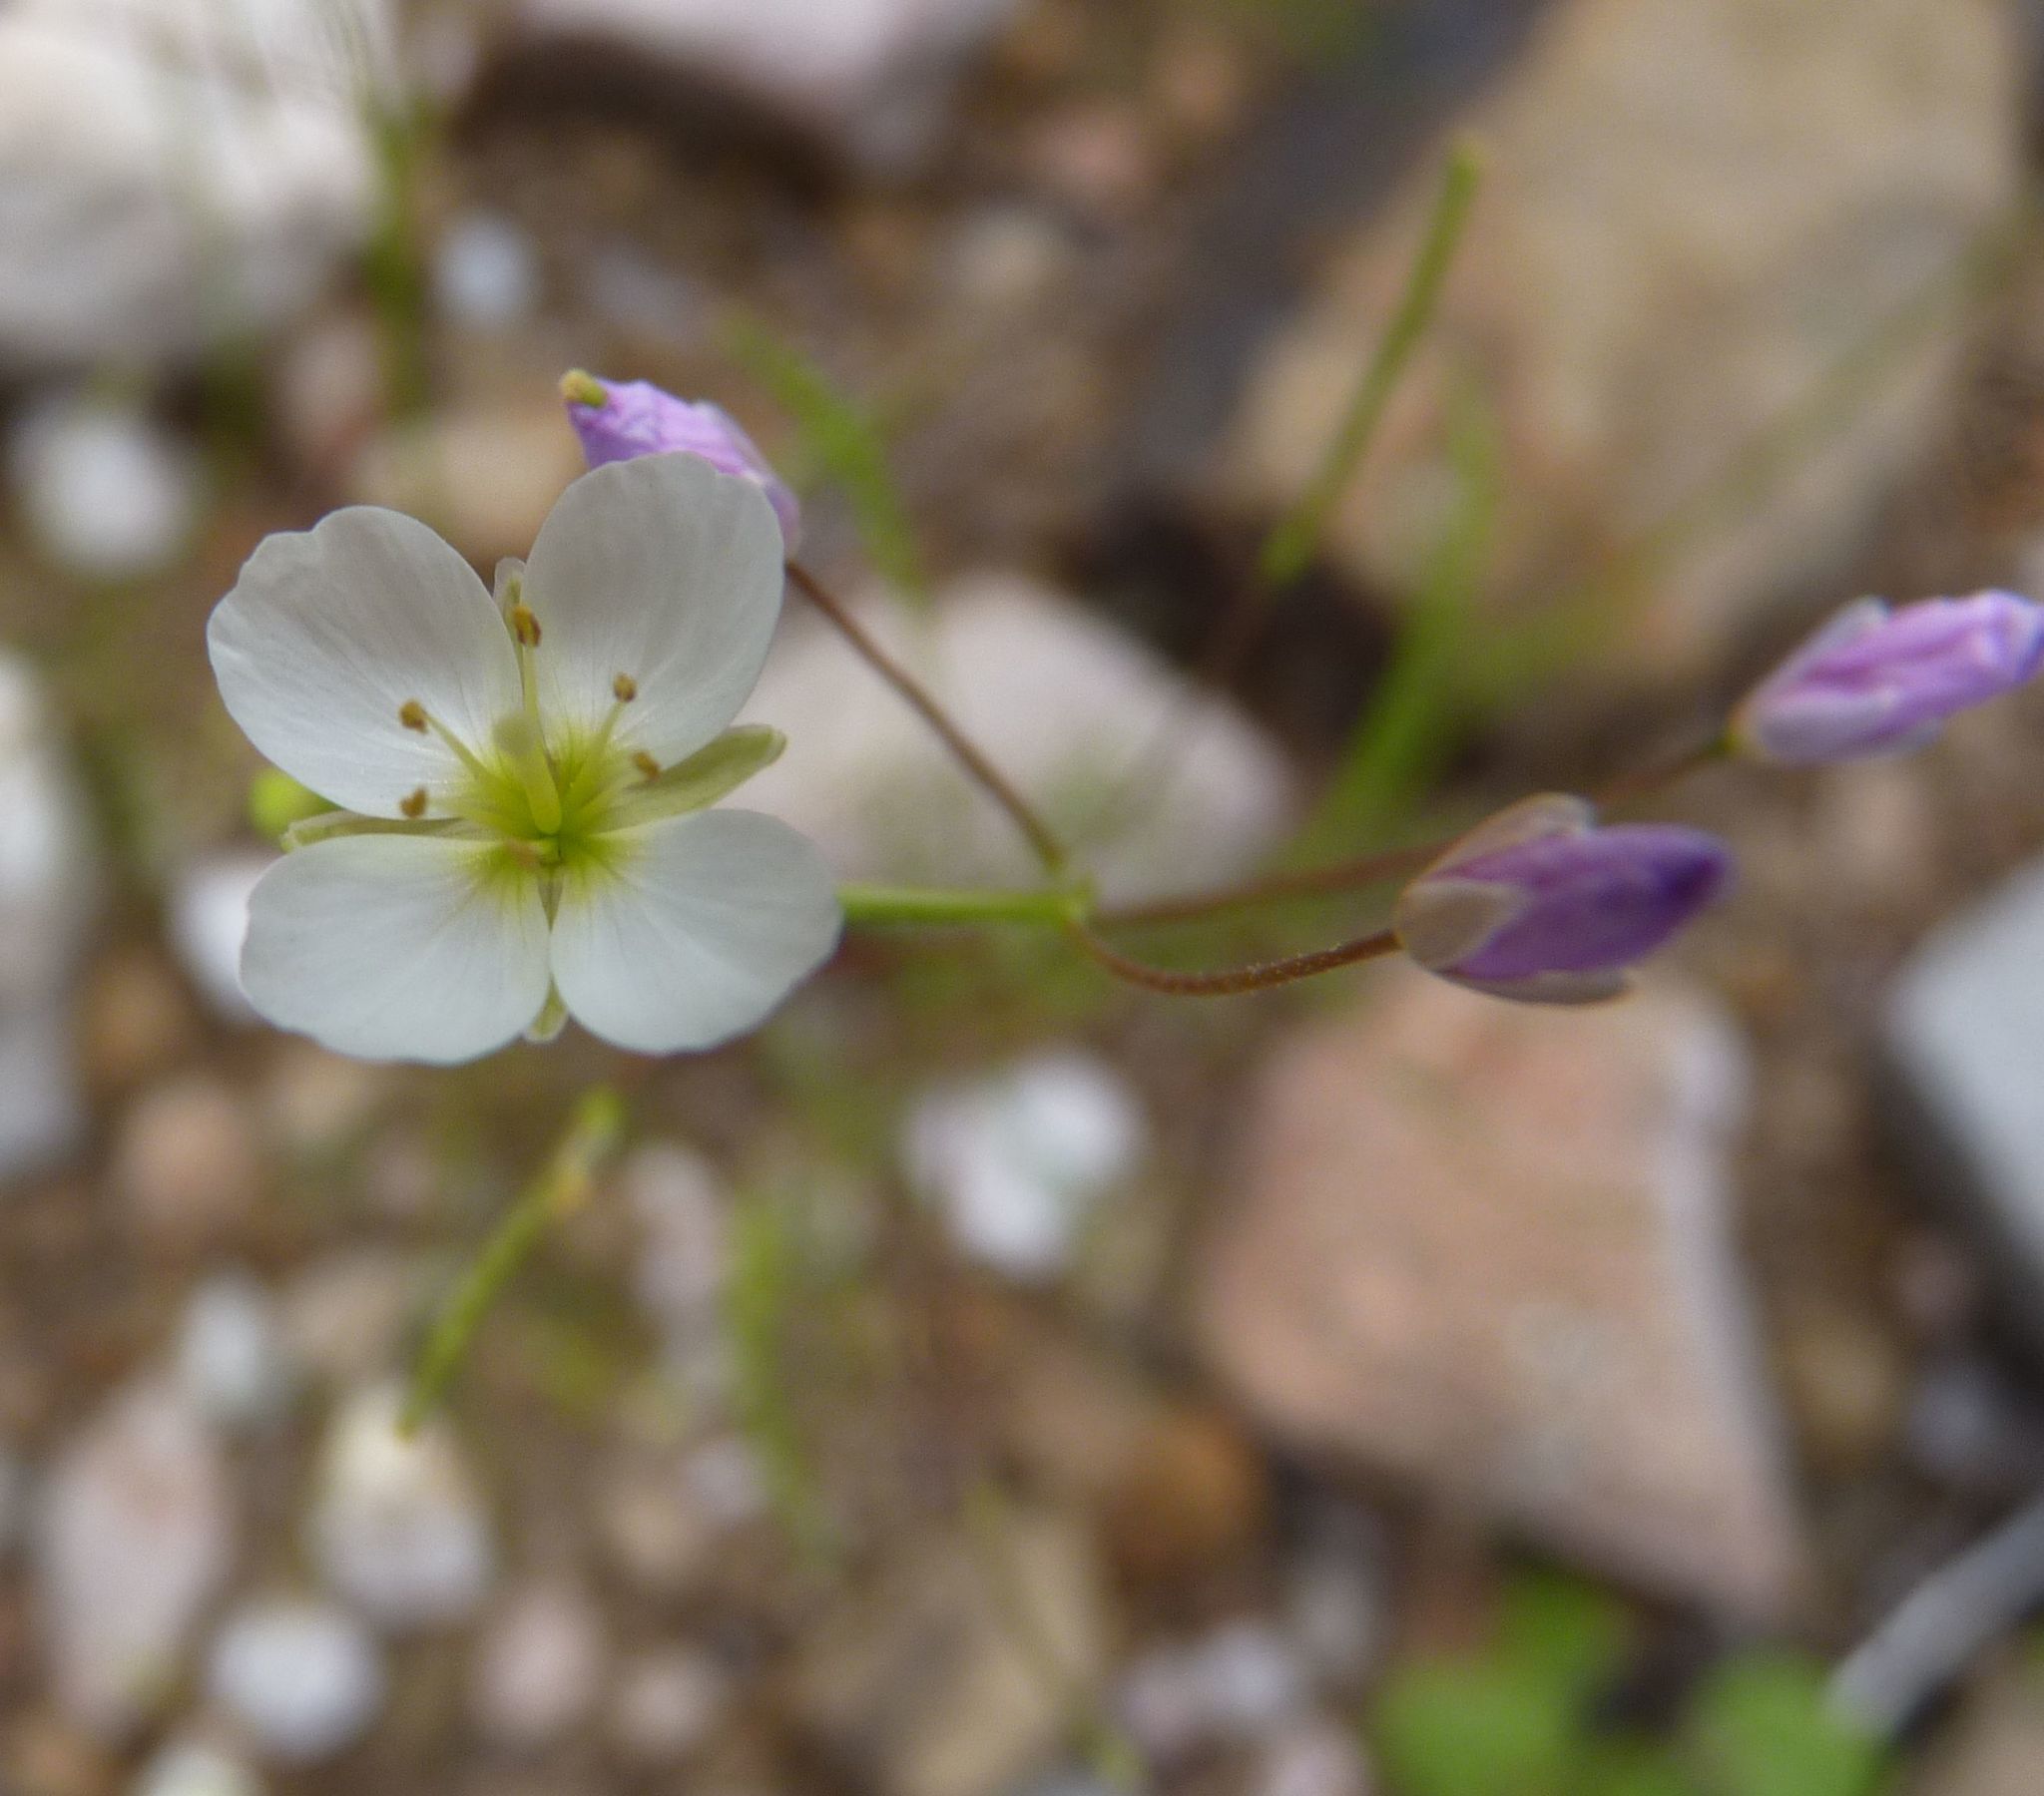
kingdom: Plantae
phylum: Tracheophyta
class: Magnoliopsida
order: Brassicales
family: Brassicaceae
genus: Heliophila
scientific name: Heliophila crithmifolia
